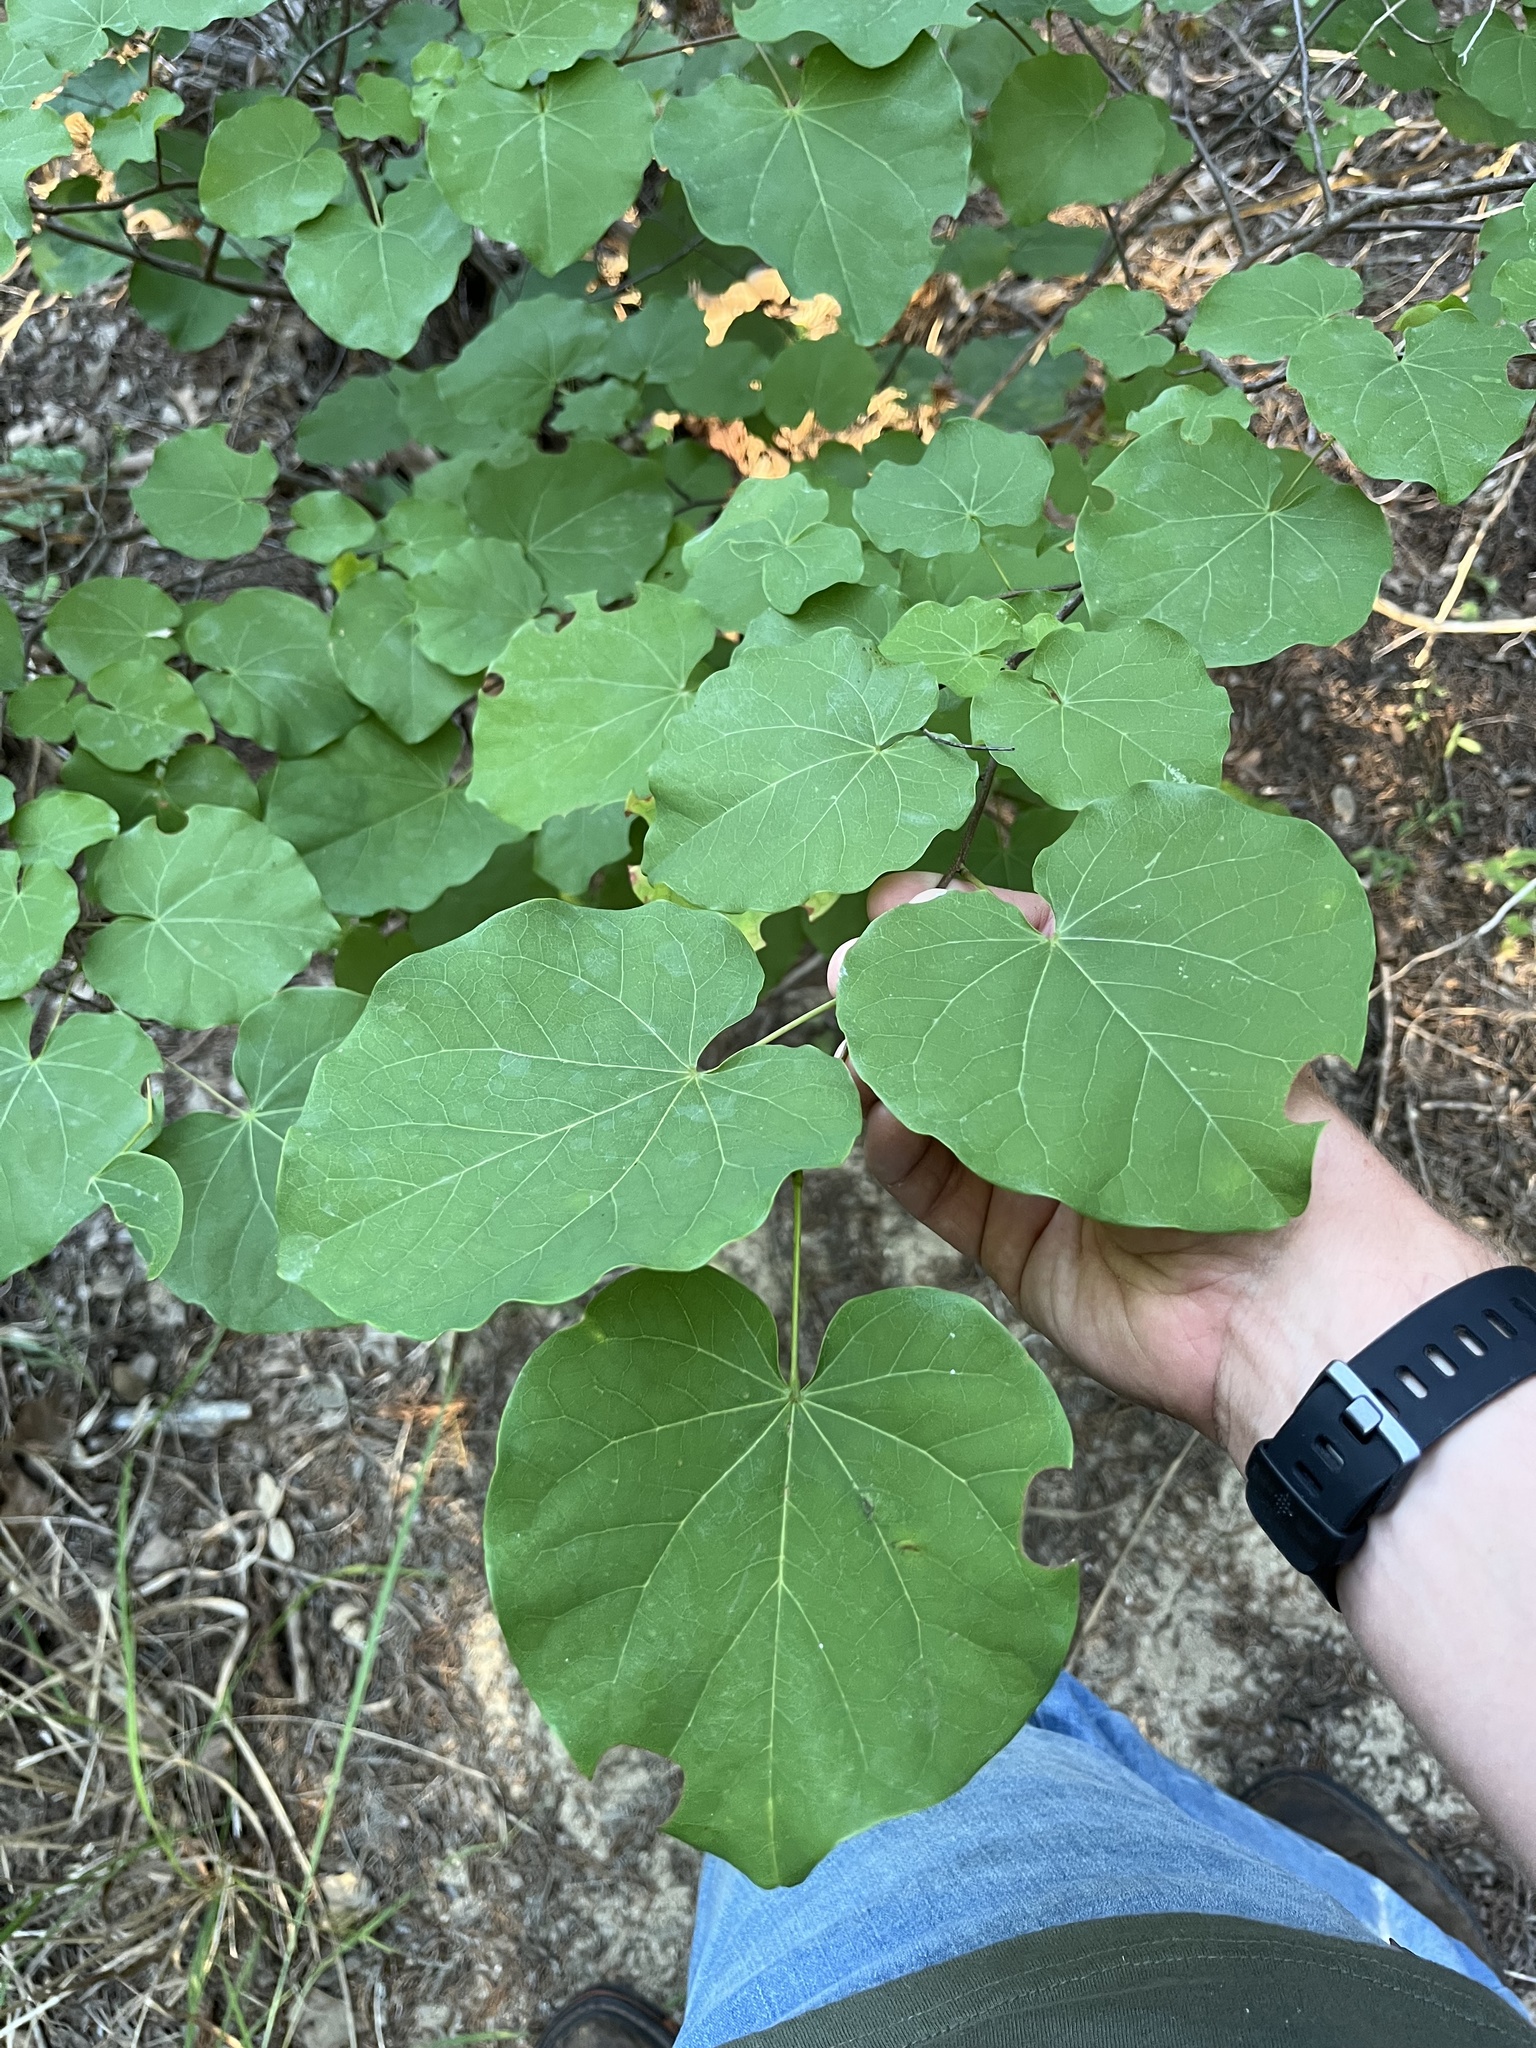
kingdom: Plantae
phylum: Tracheophyta
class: Magnoliopsida
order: Fabales
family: Fabaceae
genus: Cercis
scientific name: Cercis canadensis
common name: Eastern redbud
